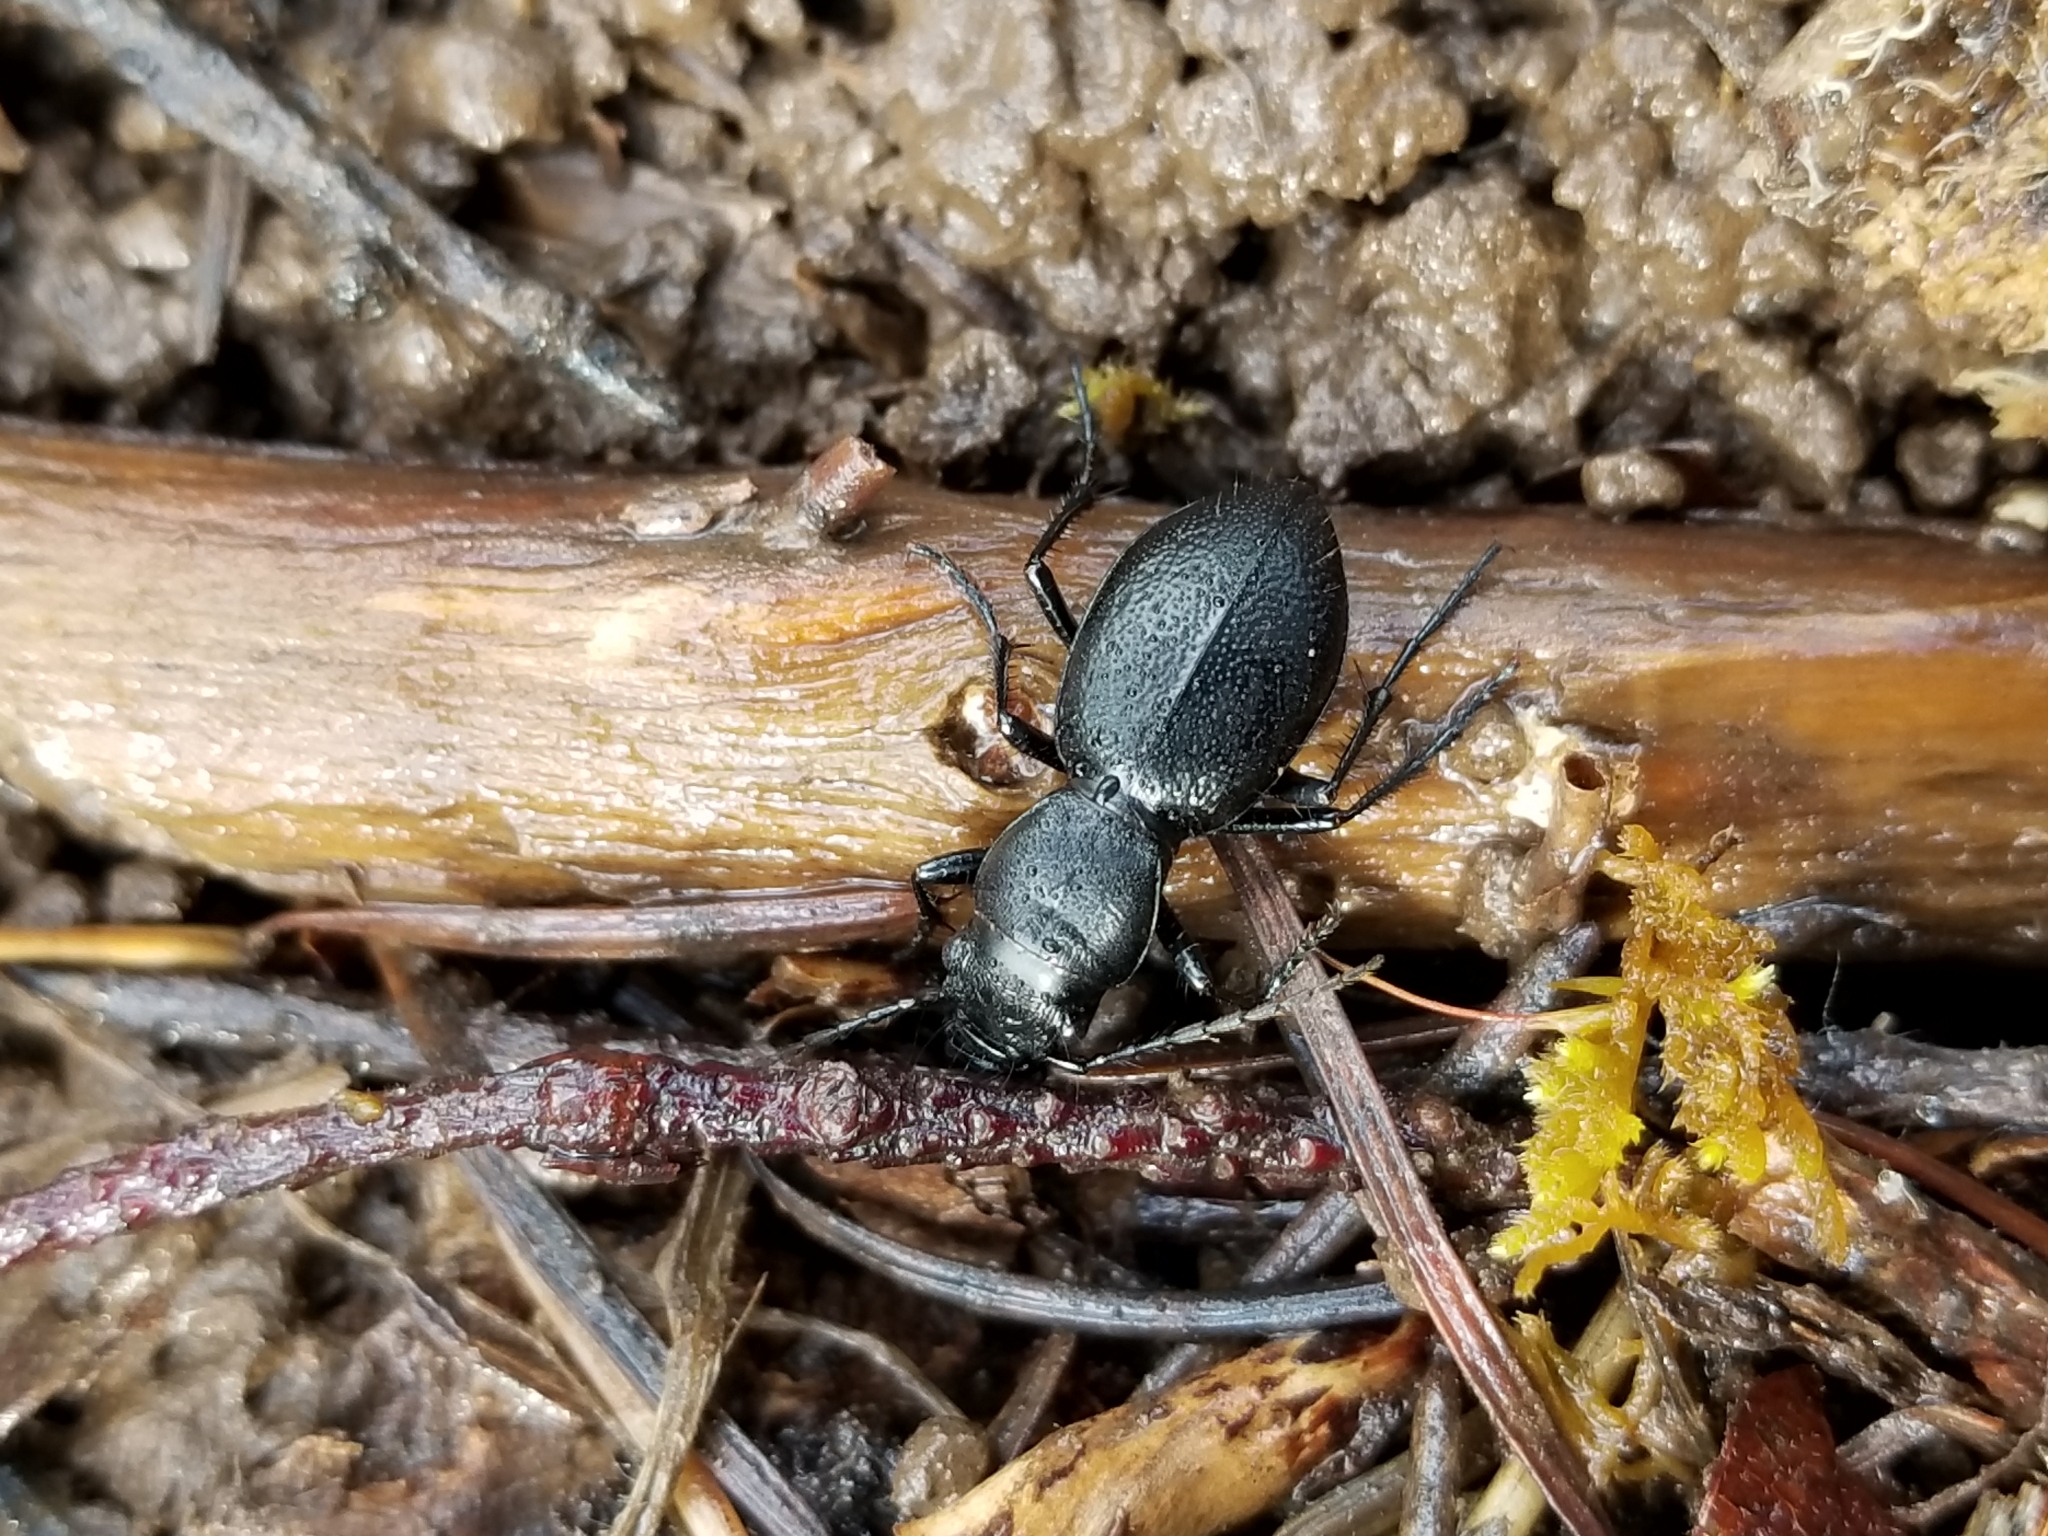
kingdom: Animalia
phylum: Arthropoda
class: Insecta
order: Coleoptera
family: Carabidae
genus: Omus
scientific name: Omus audouini
